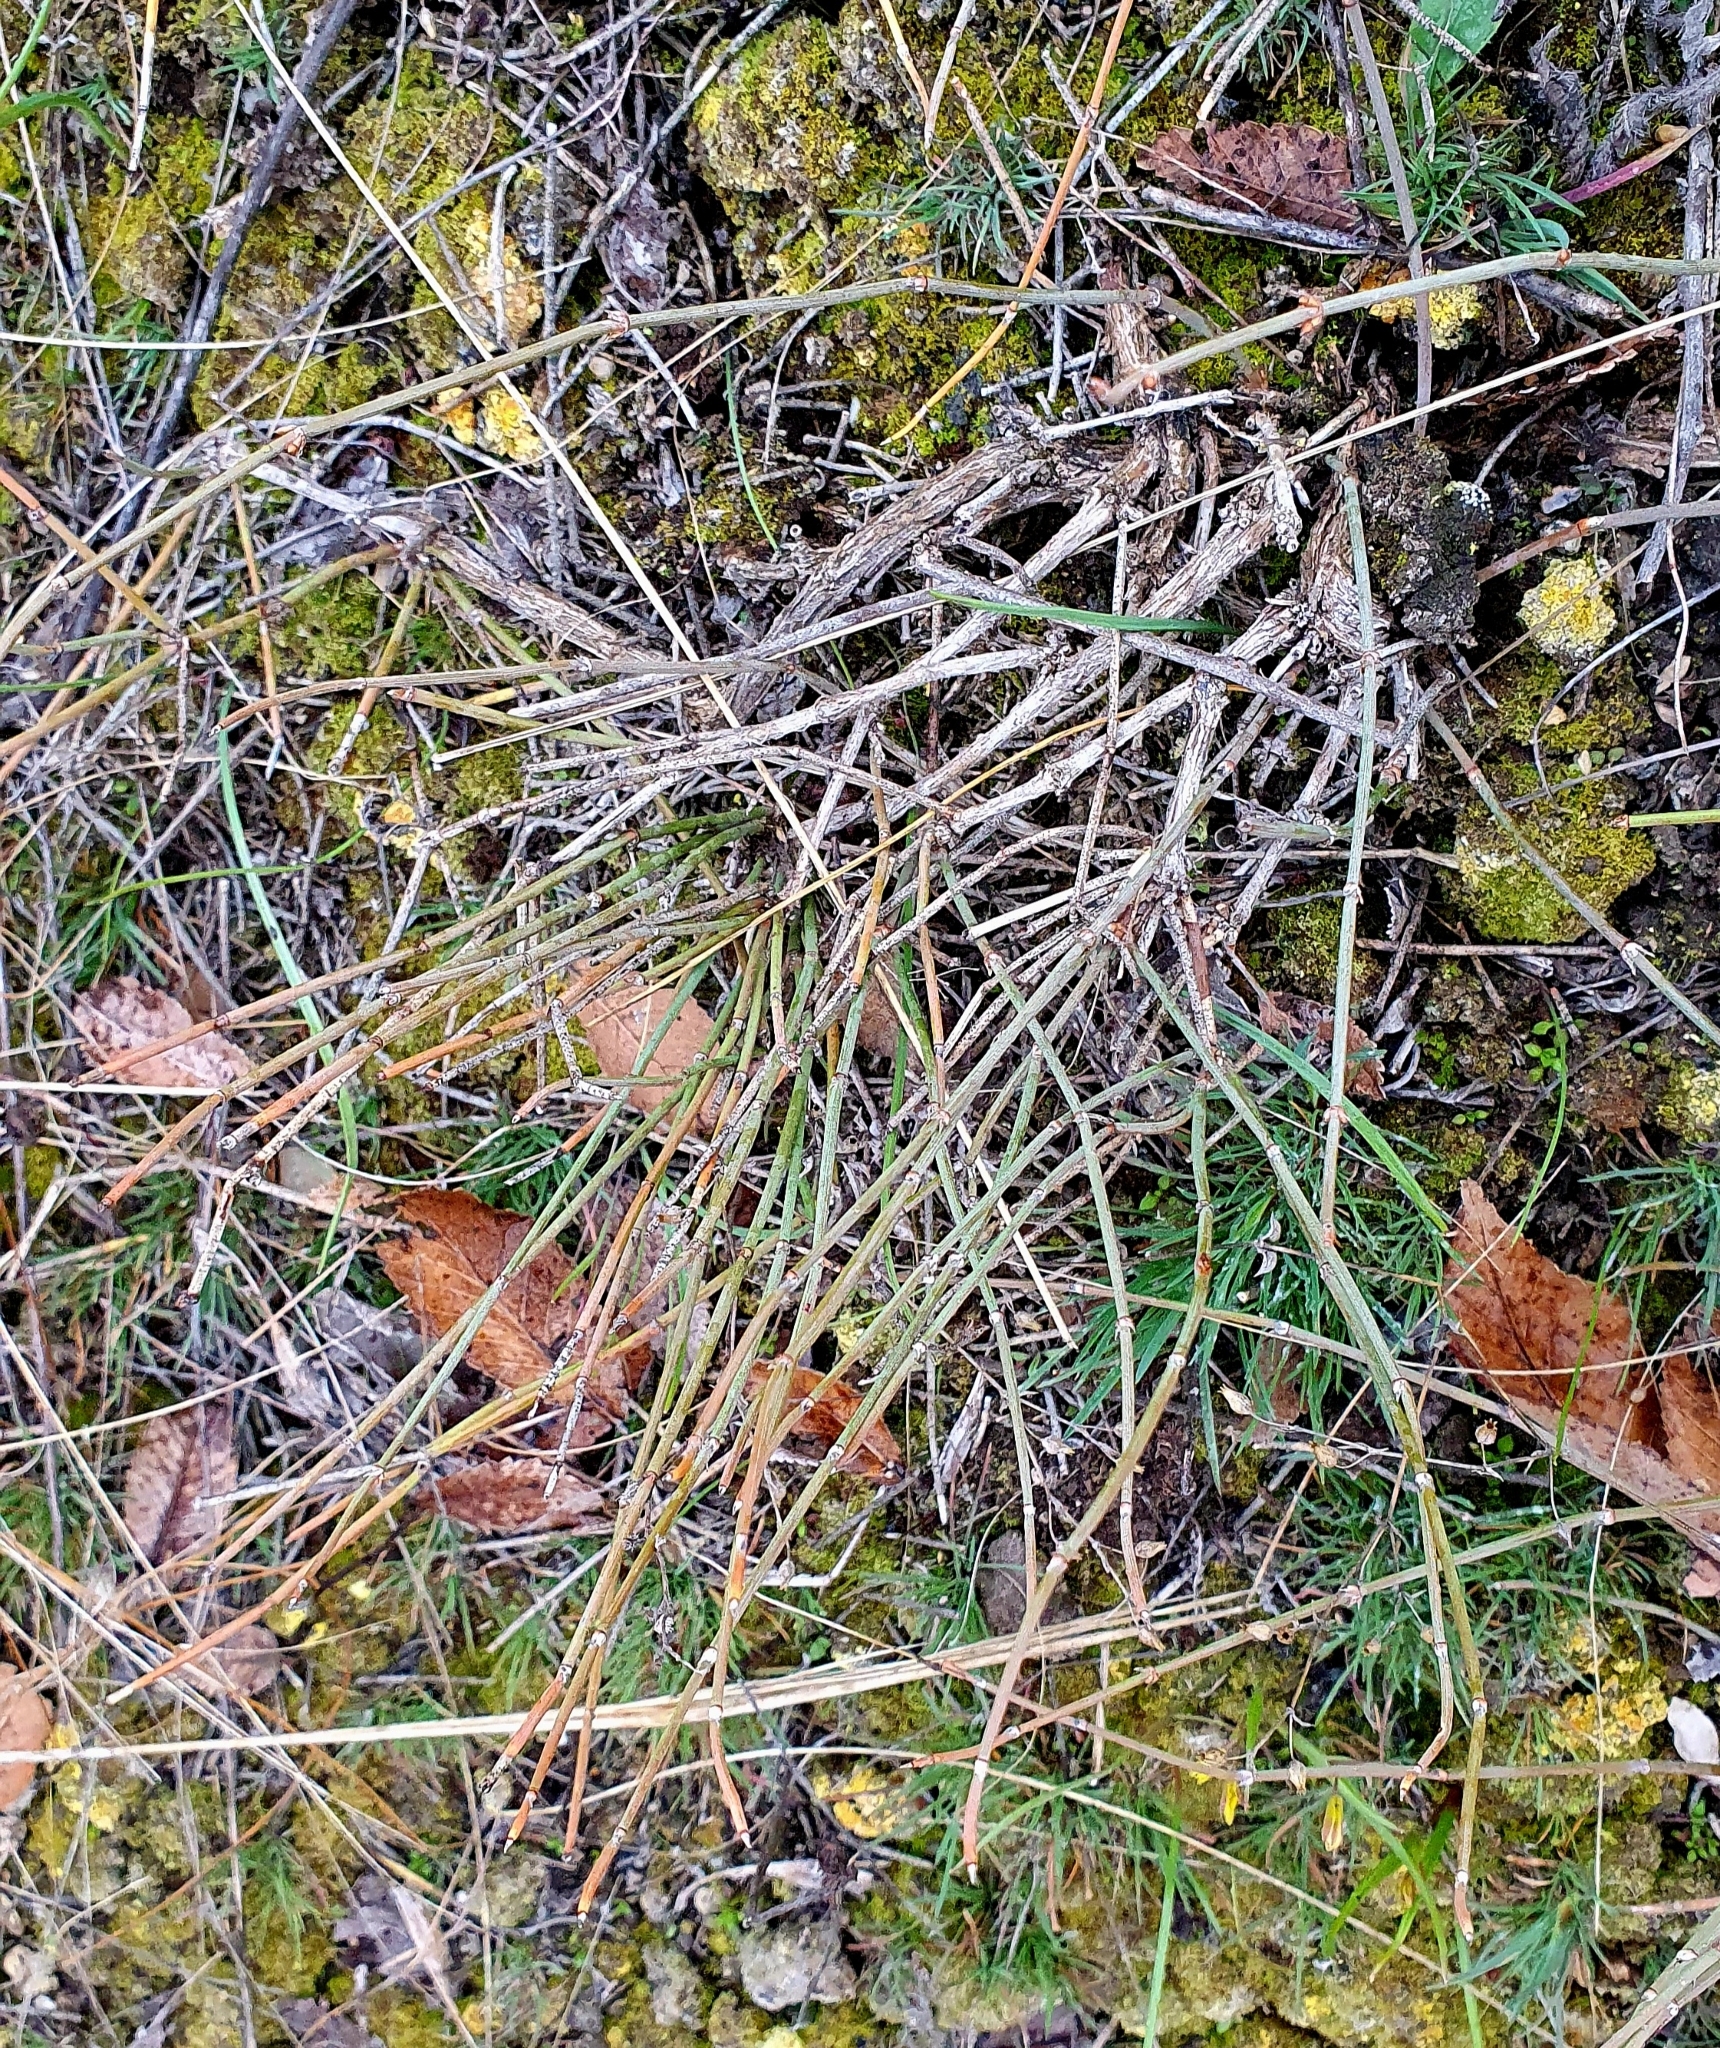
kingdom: Plantae
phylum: Tracheophyta
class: Gnetopsida
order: Ephedrales
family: Ephedraceae
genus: Ephedra
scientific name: Ephedra distachya
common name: Sea grape
